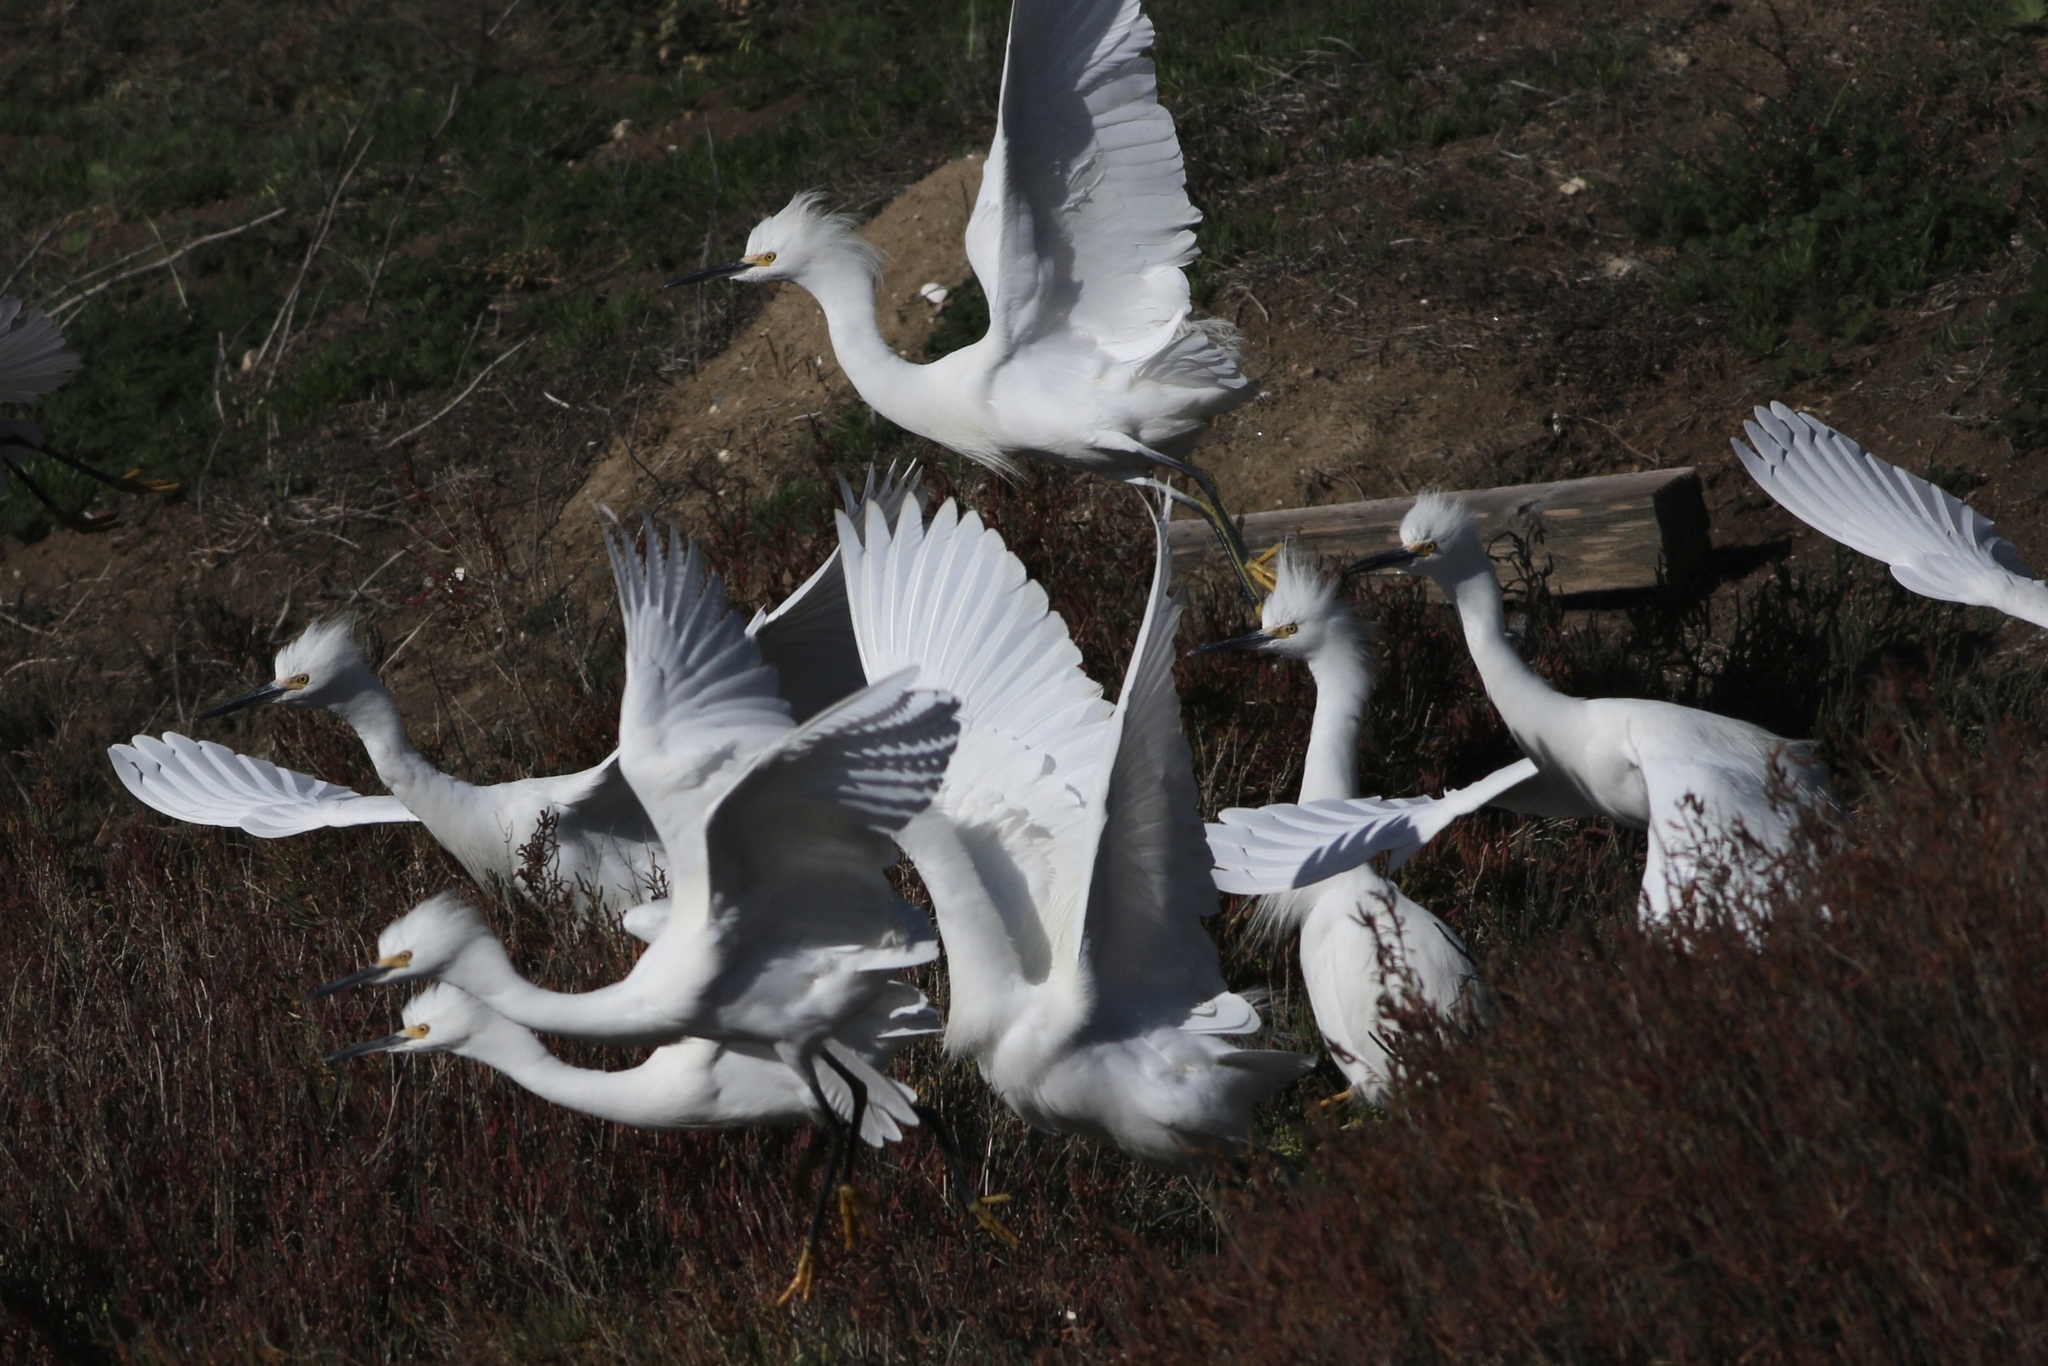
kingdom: Animalia
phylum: Chordata
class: Aves
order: Pelecaniformes
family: Ardeidae
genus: Egretta
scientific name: Egretta thula
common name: Snowy egret
